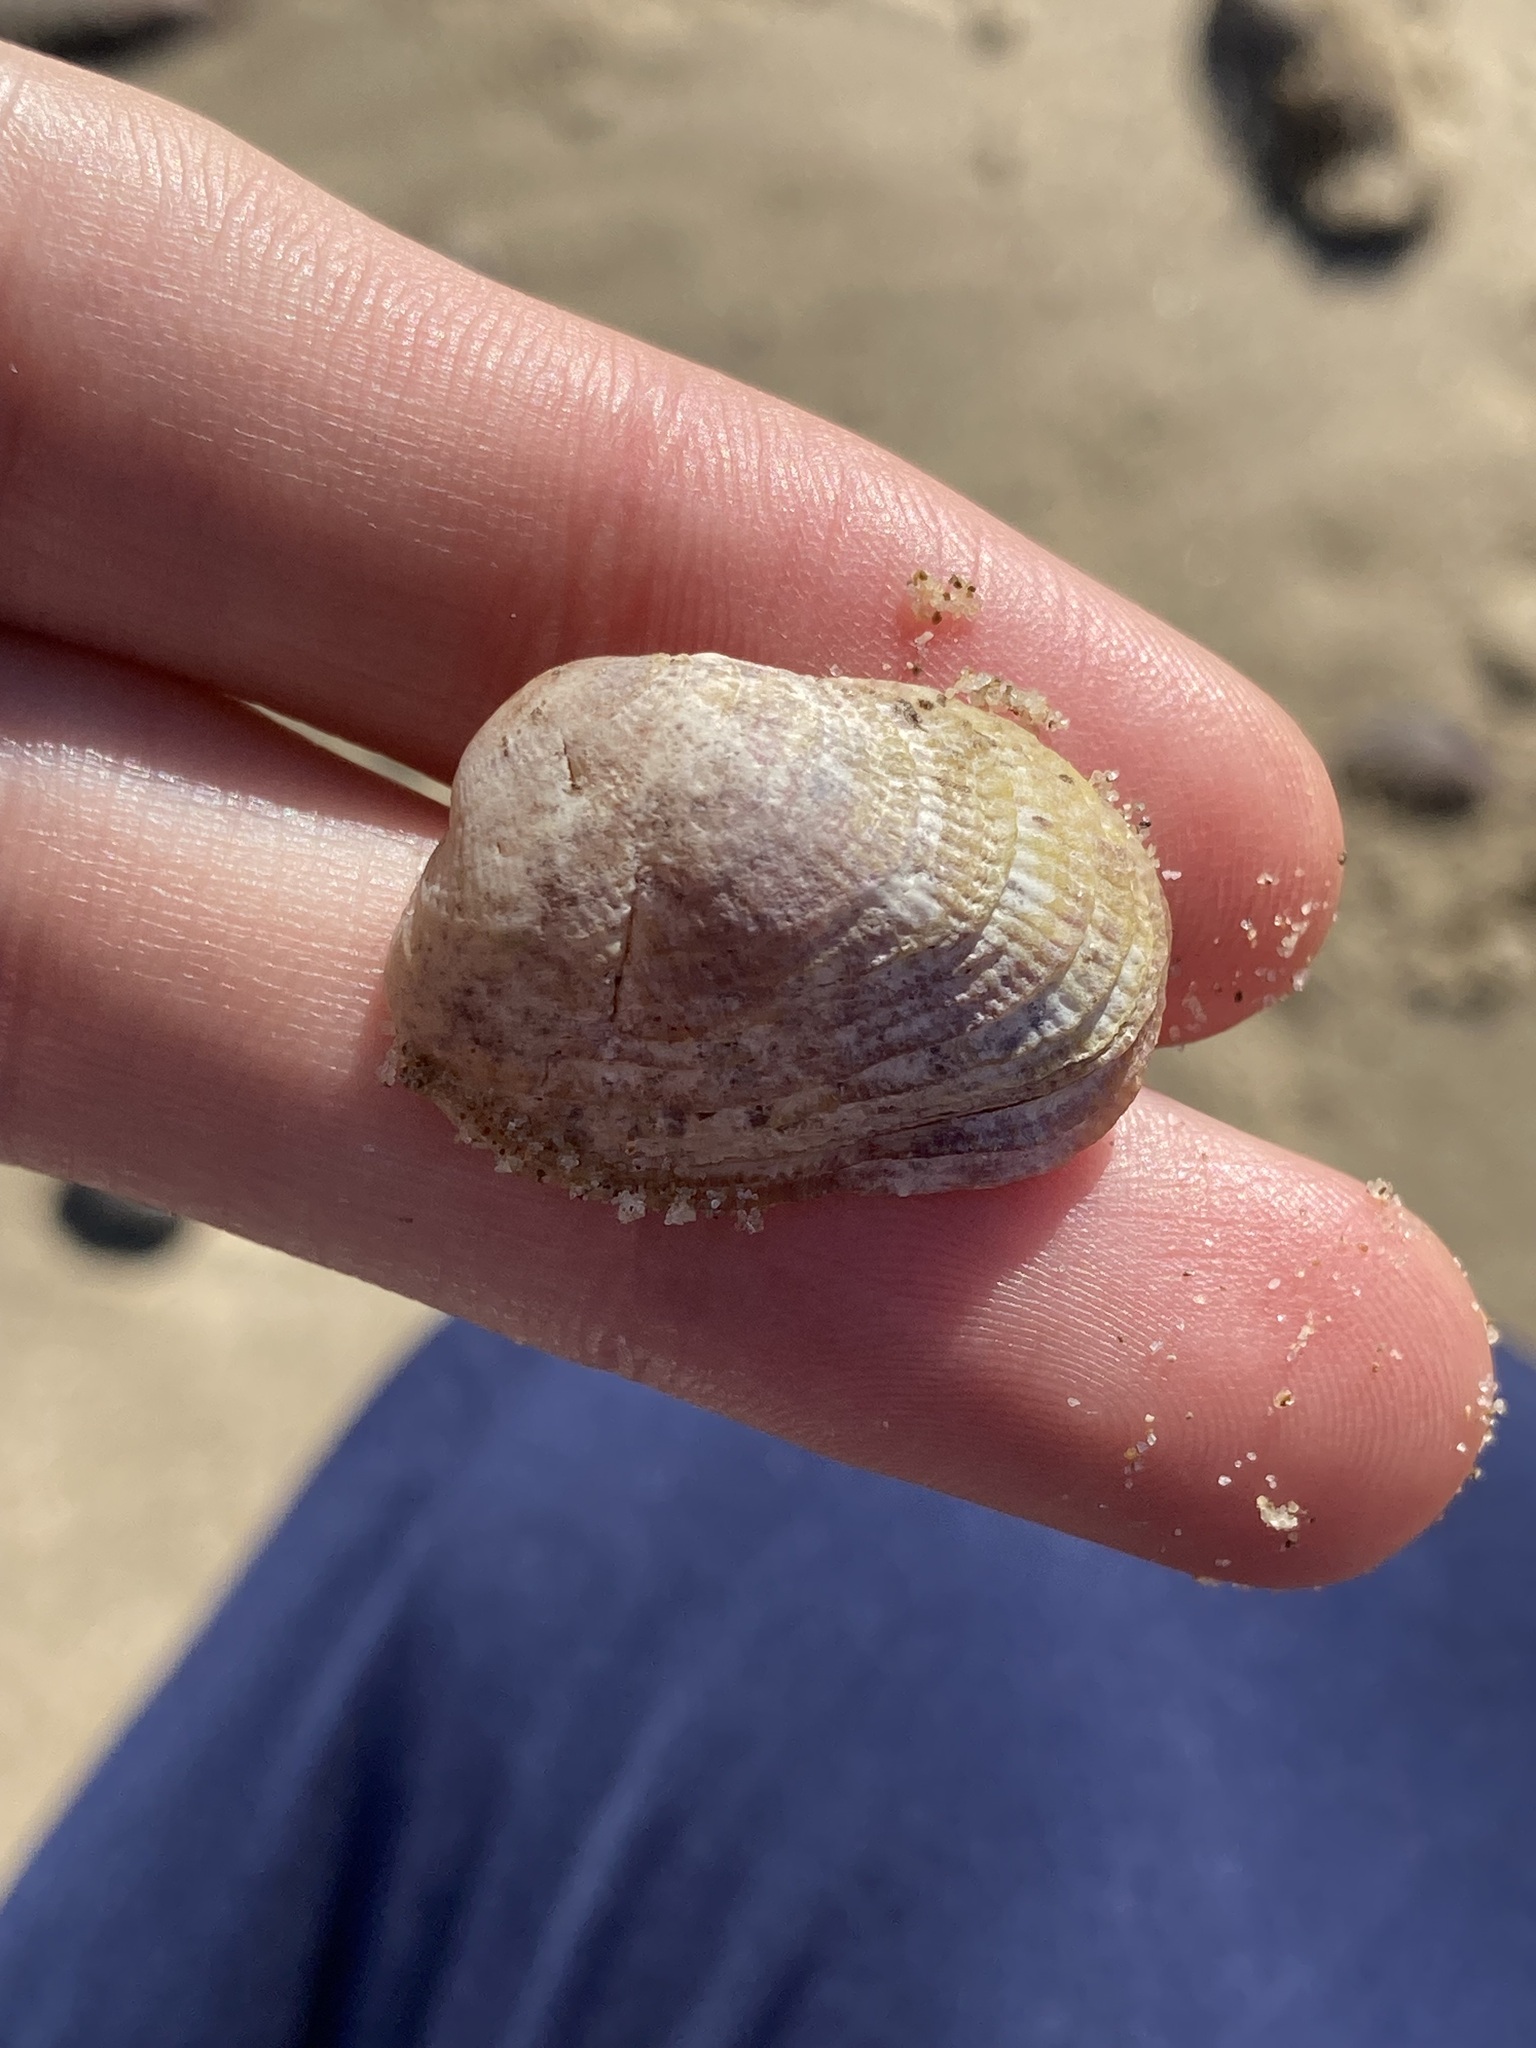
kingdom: Animalia
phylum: Mollusca
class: Bivalvia
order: Venerida
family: Veneridae
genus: Irus
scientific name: Irus crenatus
